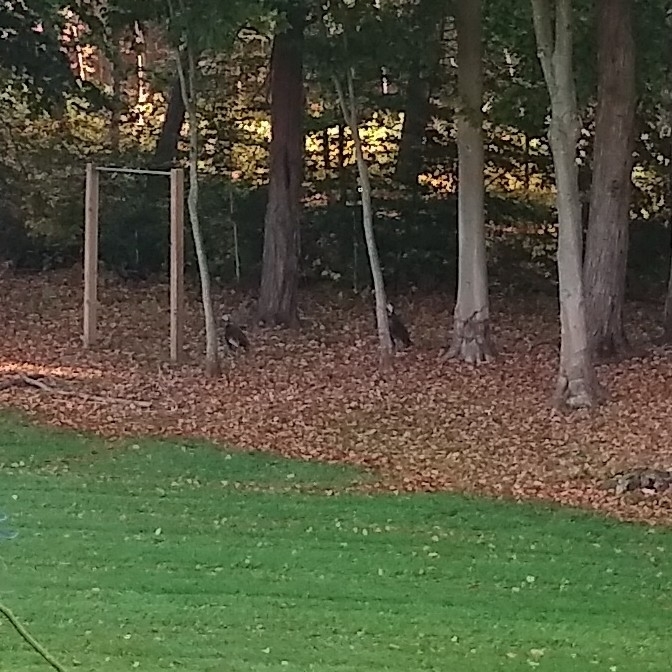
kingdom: Animalia
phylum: Chordata
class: Aves
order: Galliformes
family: Phasianidae
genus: Meleagris
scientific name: Meleagris gallopavo
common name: Wild turkey
